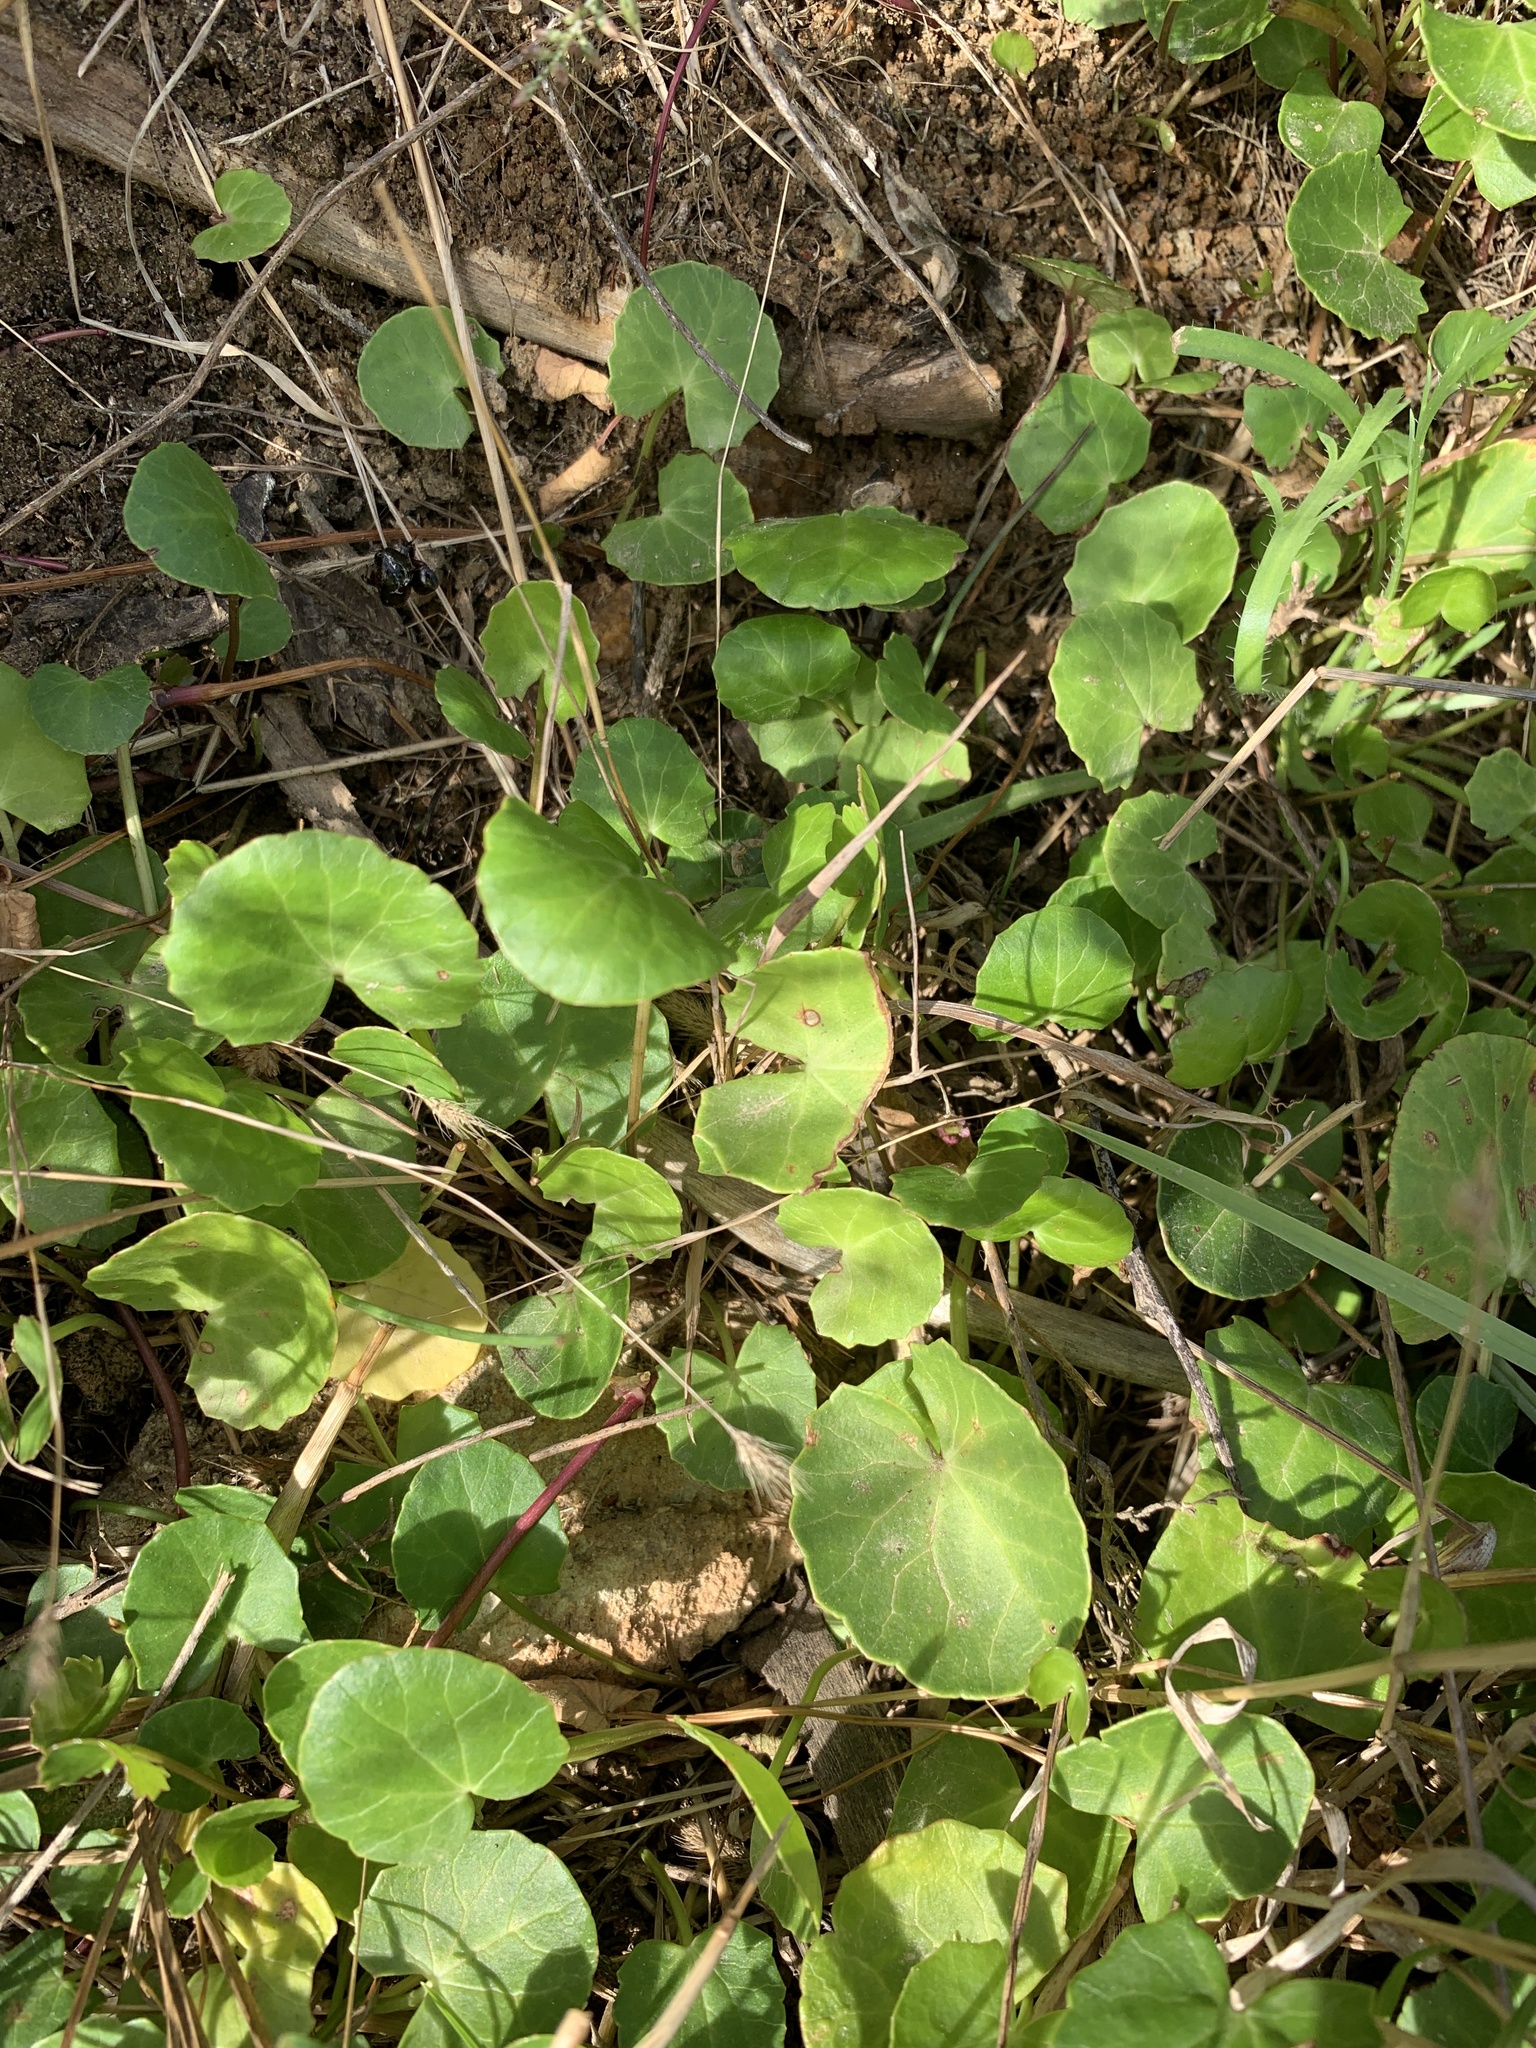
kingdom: Plantae
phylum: Tracheophyta
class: Magnoliopsida
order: Apiales
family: Apiaceae
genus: Centella
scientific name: Centella asiatica
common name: Spadeleaf
